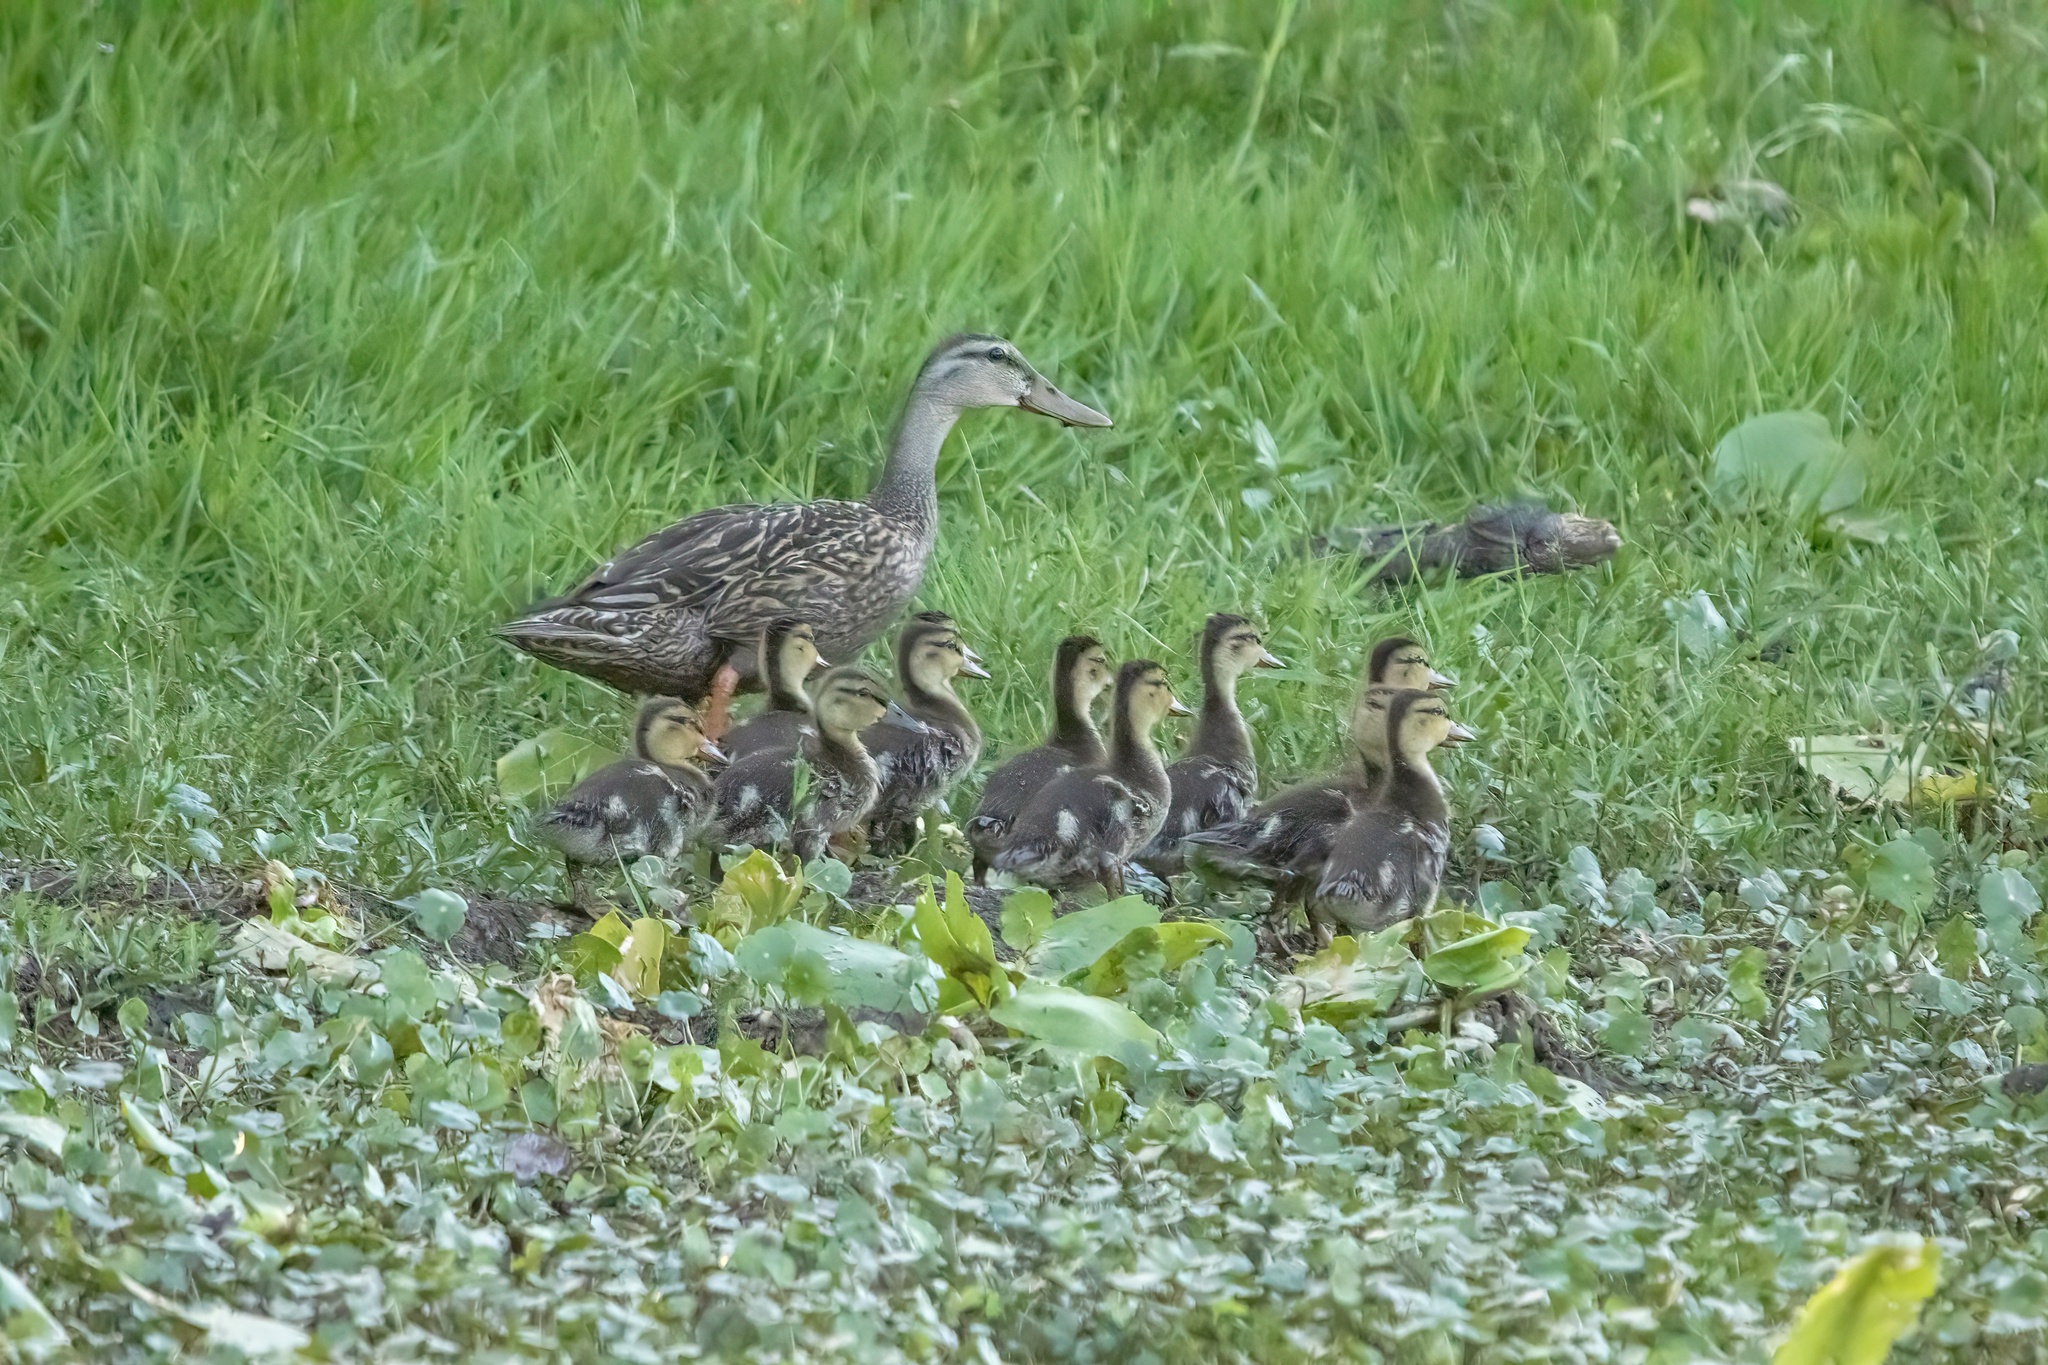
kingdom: Animalia
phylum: Chordata
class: Aves
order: Anseriformes
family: Anatidae
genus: Anas
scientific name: Anas
